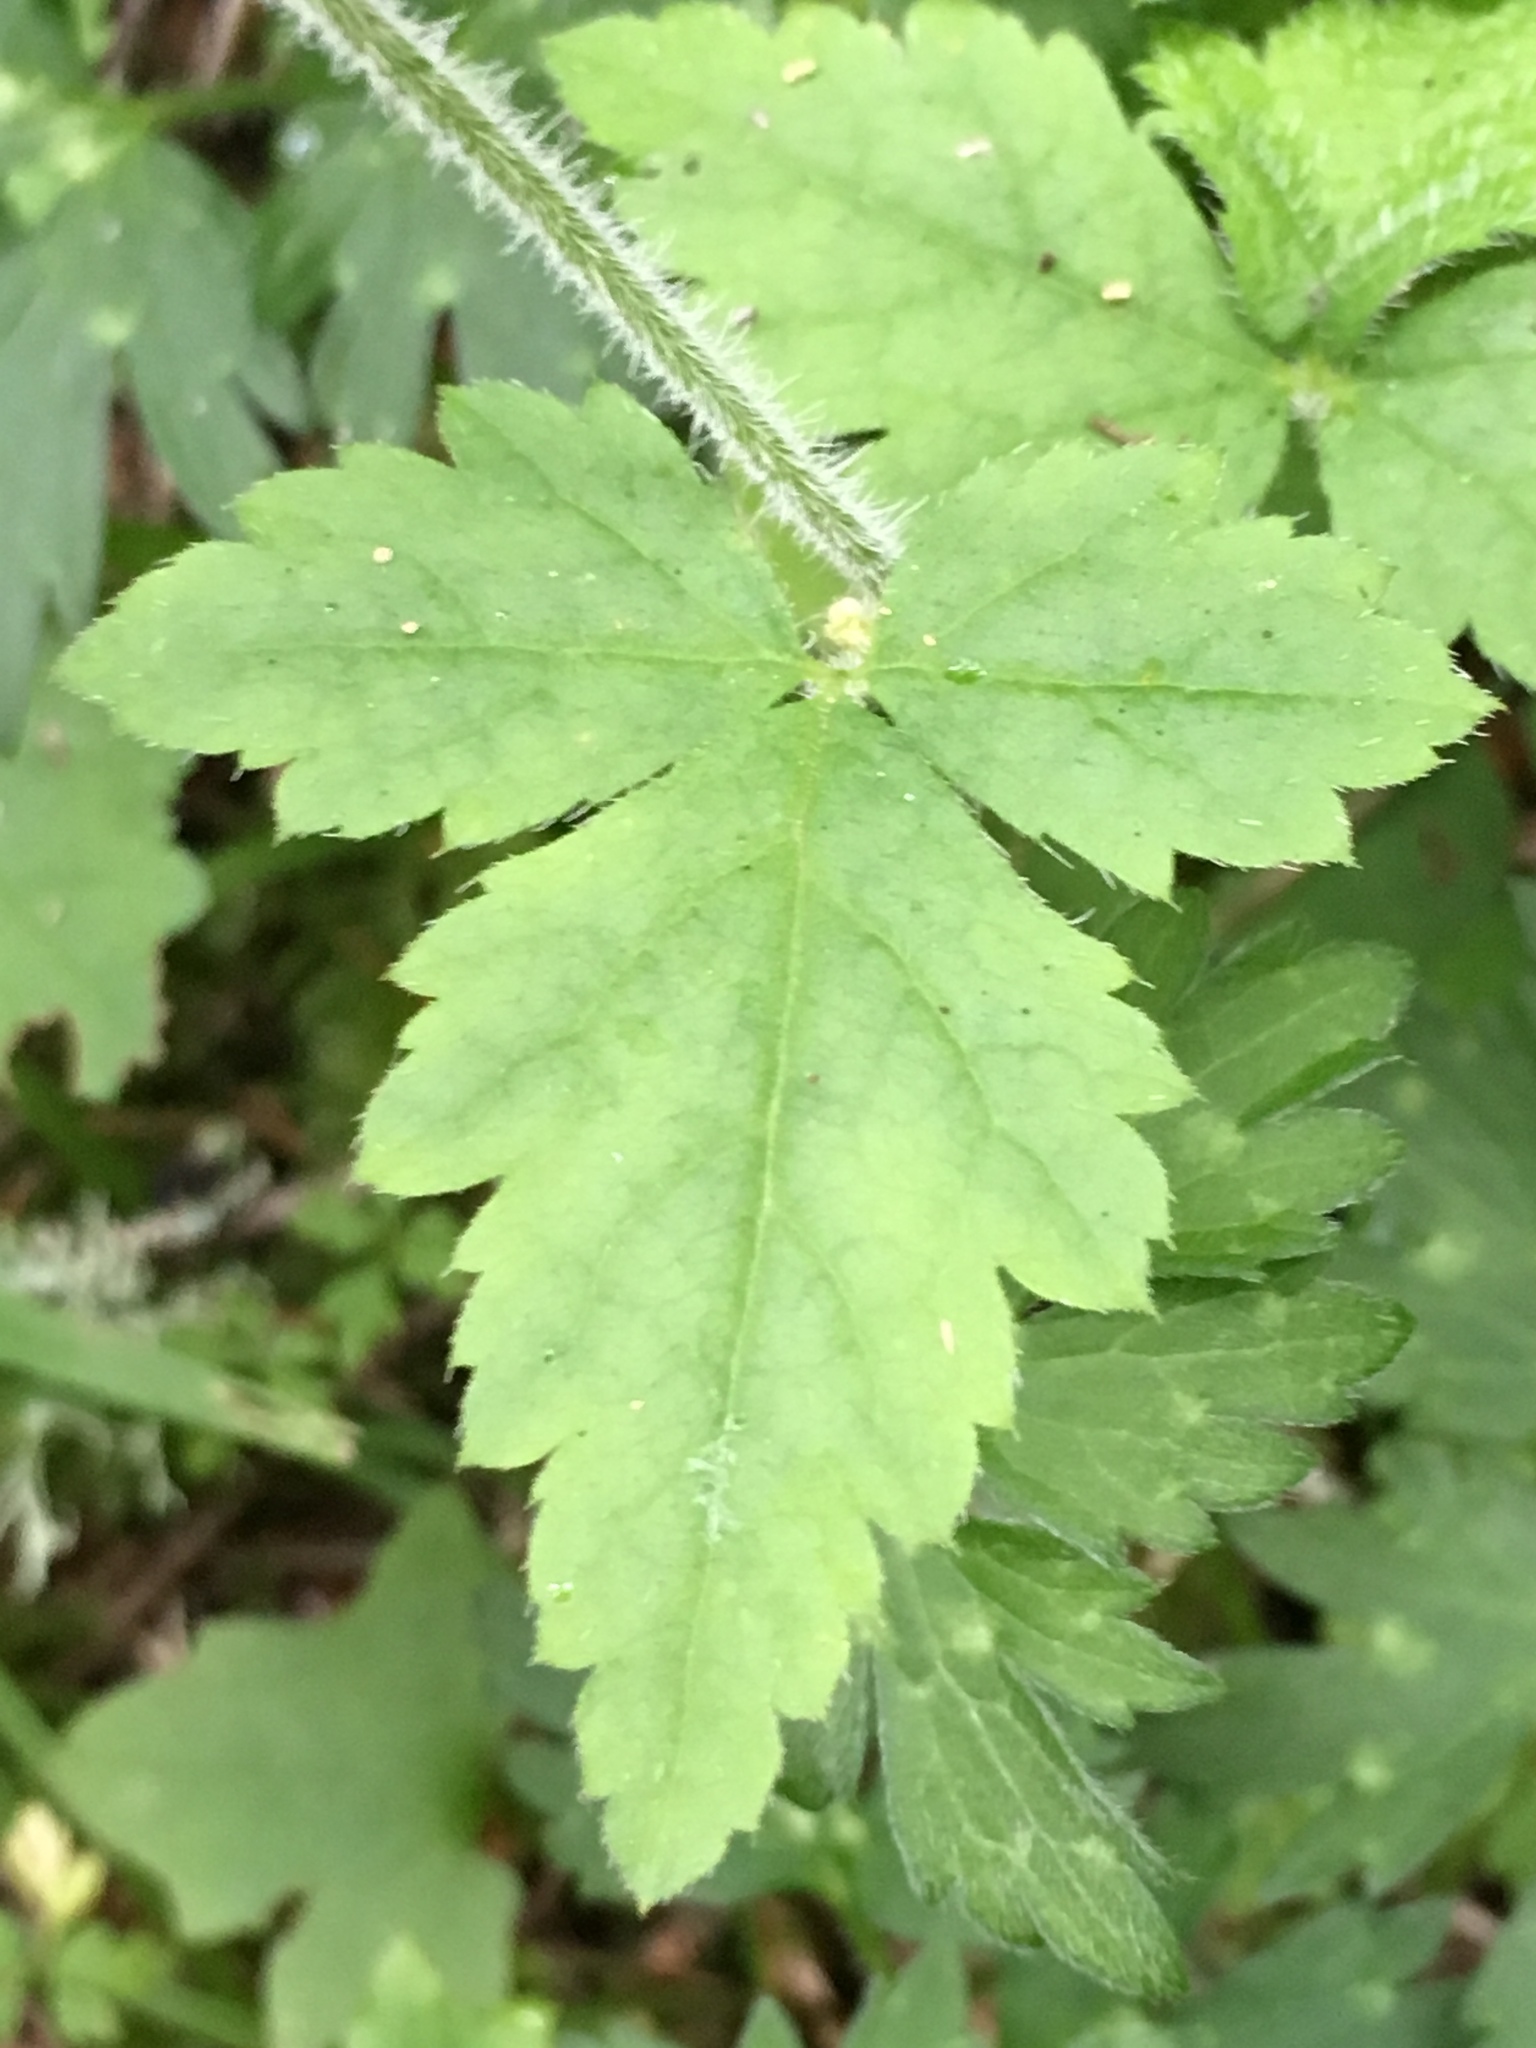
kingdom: Plantae
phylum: Tracheophyta
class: Magnoliopsida
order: Saxifragales
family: Saxifragaceae
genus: Tiarella
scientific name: Tiarella trifoliata
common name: Sugar-scoop
